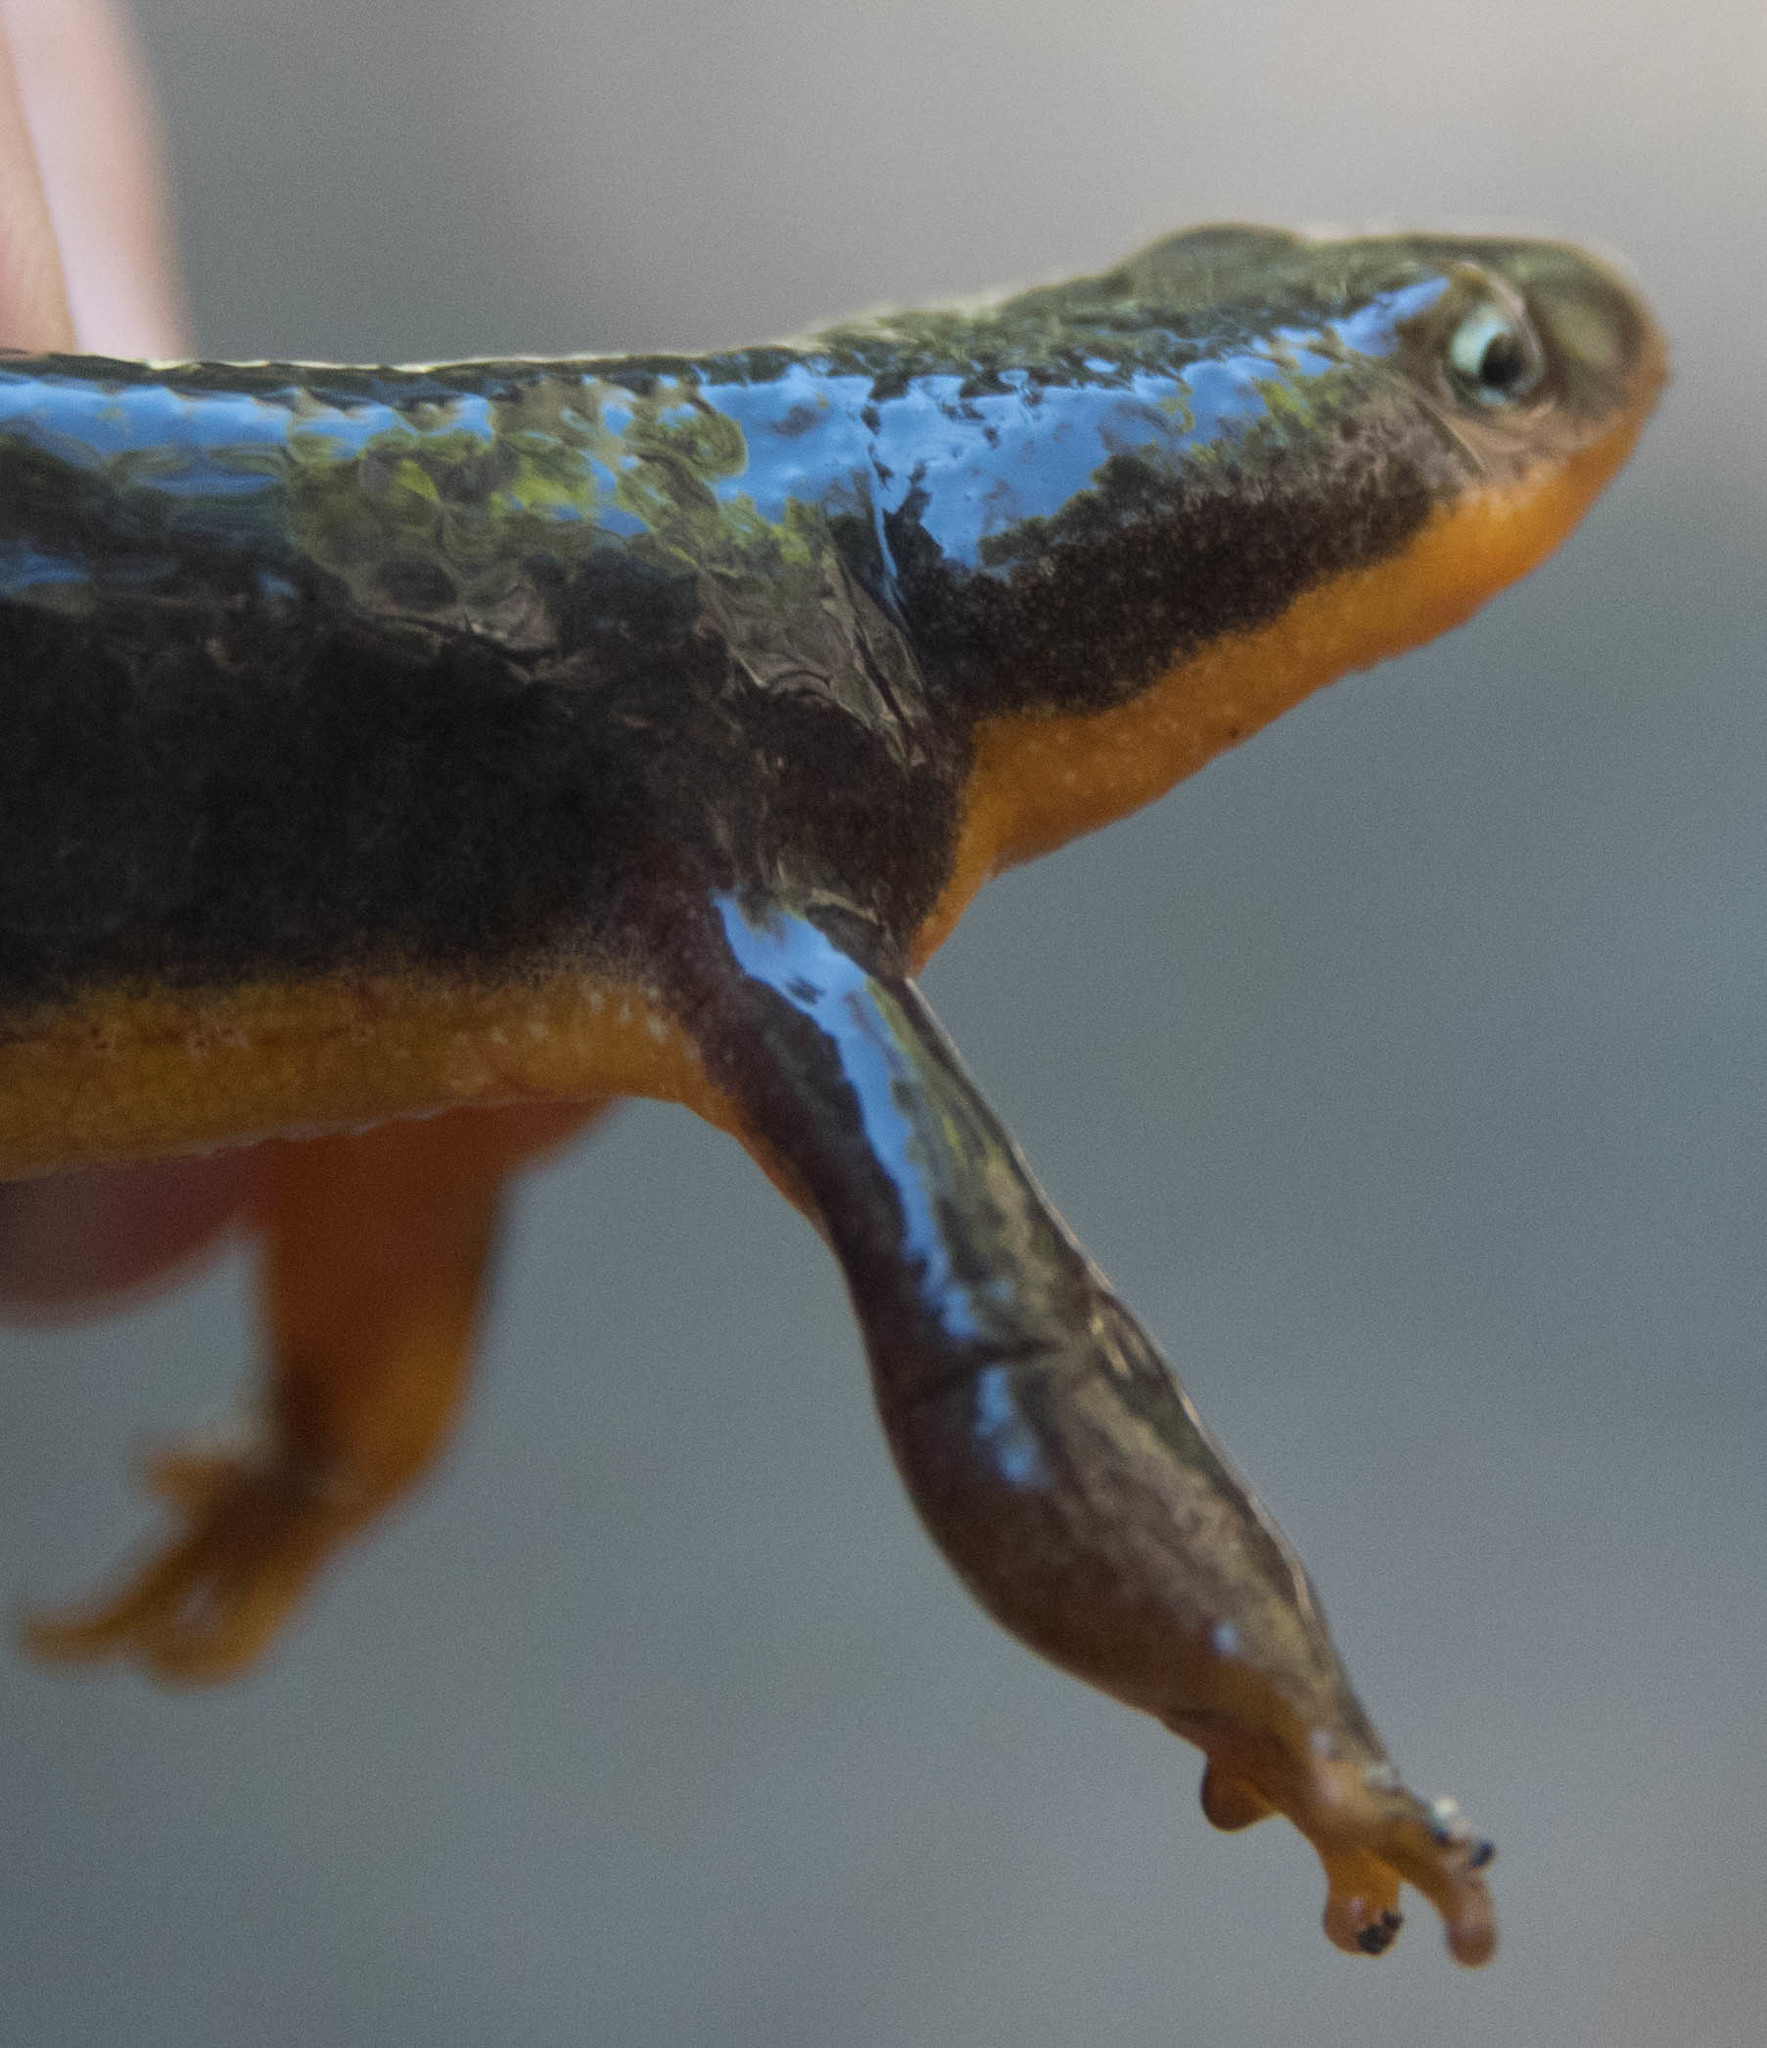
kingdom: Animalia
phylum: Chordata
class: Amphibia
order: Caudata
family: Salamandridae
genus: Taricha
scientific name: Taricha granulosa
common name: Roughskin newt
